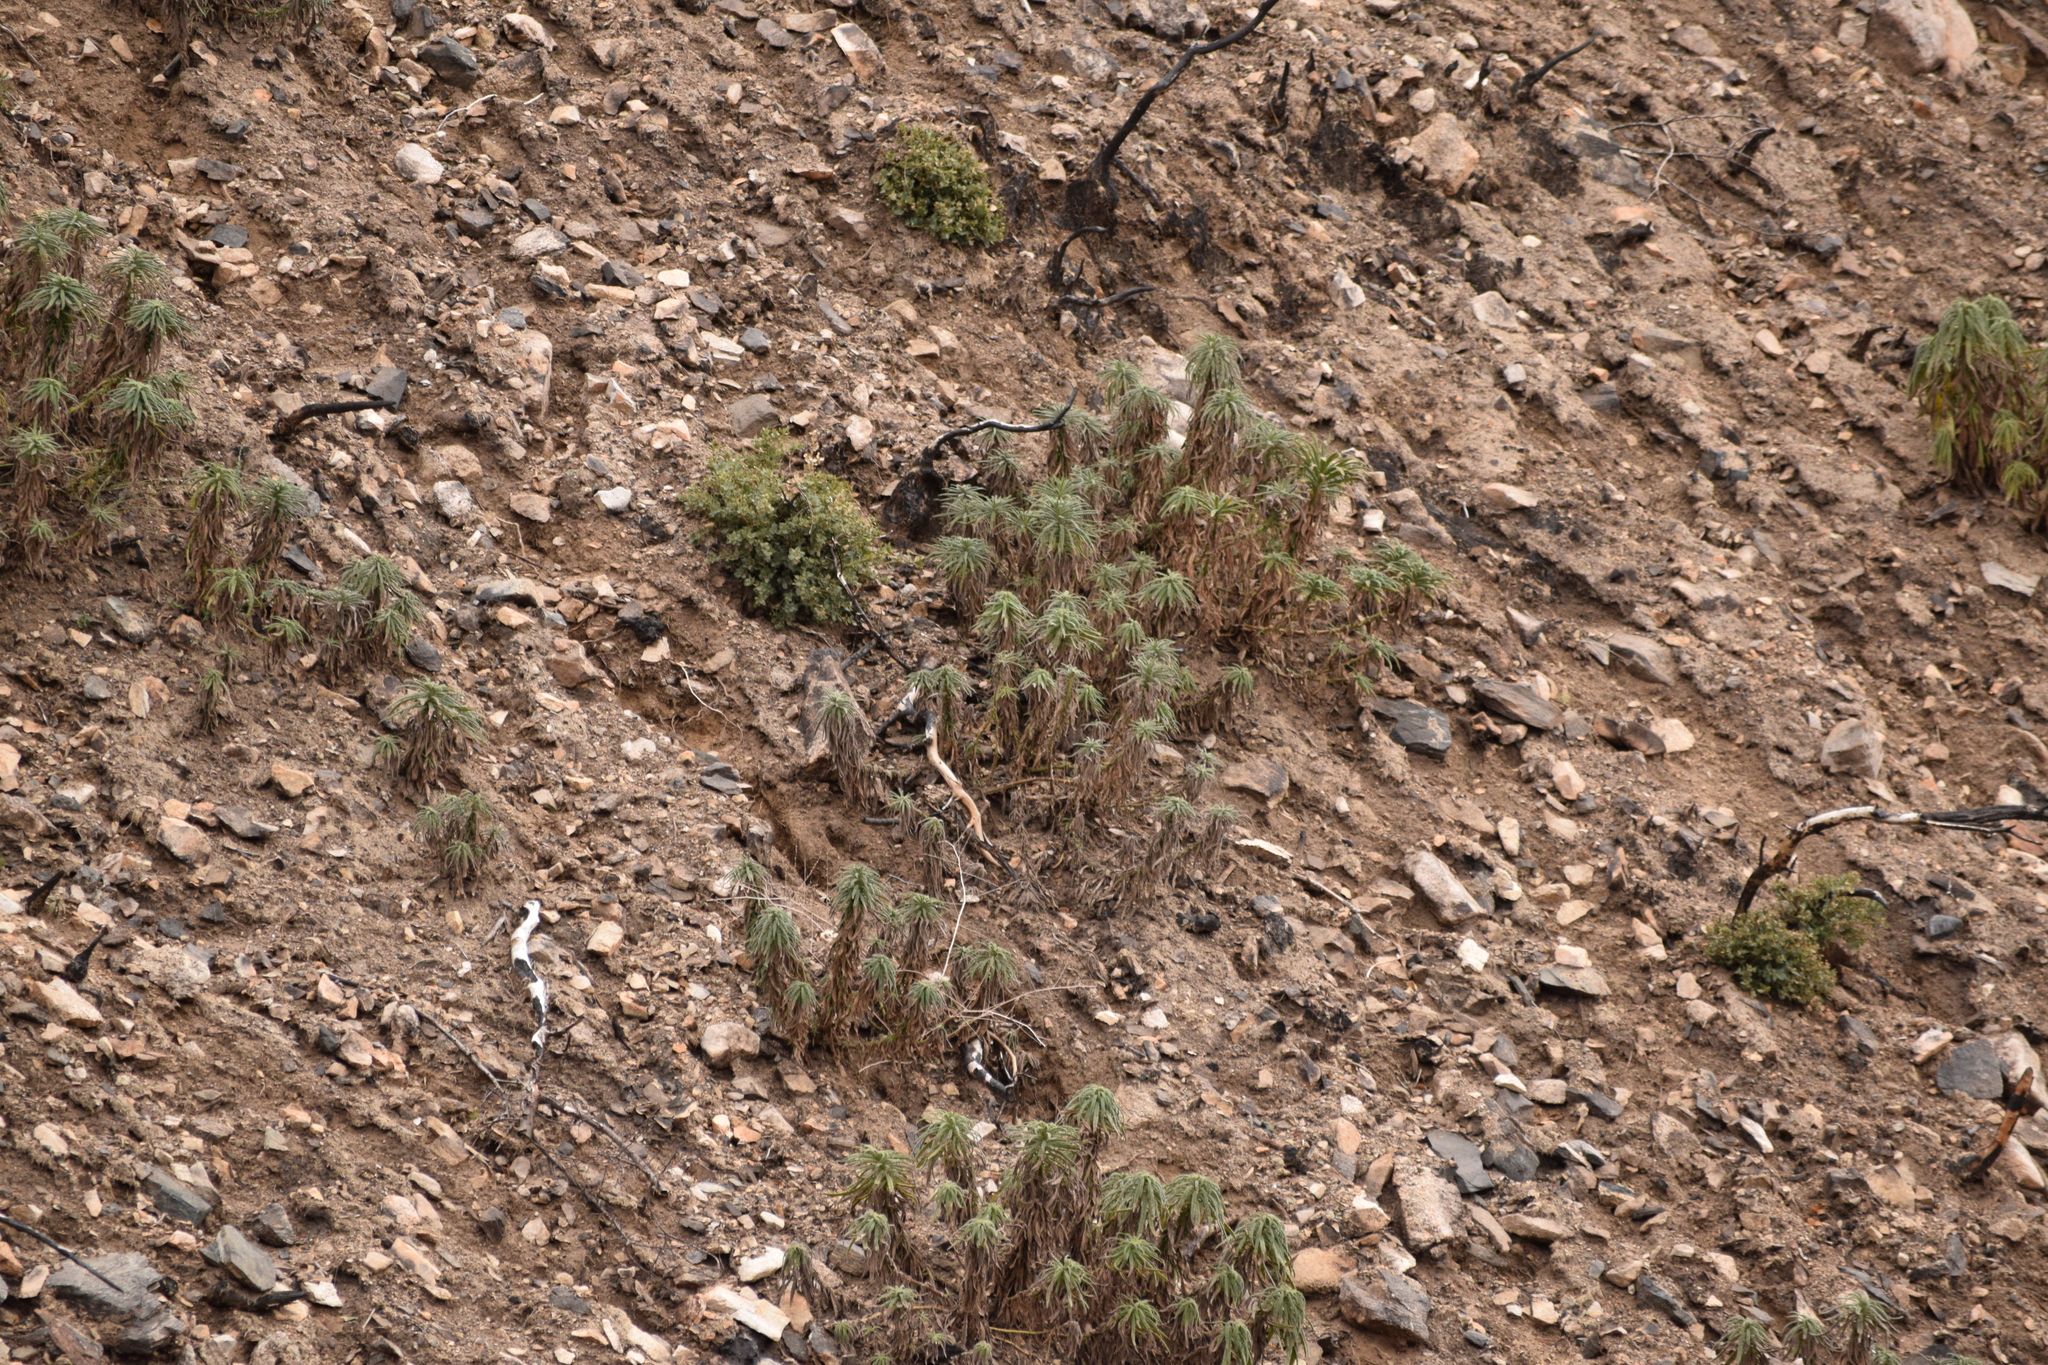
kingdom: Plantae
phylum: Tracheophyta
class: Magnoliopsida
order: Boraginales
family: Namaceae
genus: Turricula
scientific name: Turricula parryi
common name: Poodle-dog-bush
